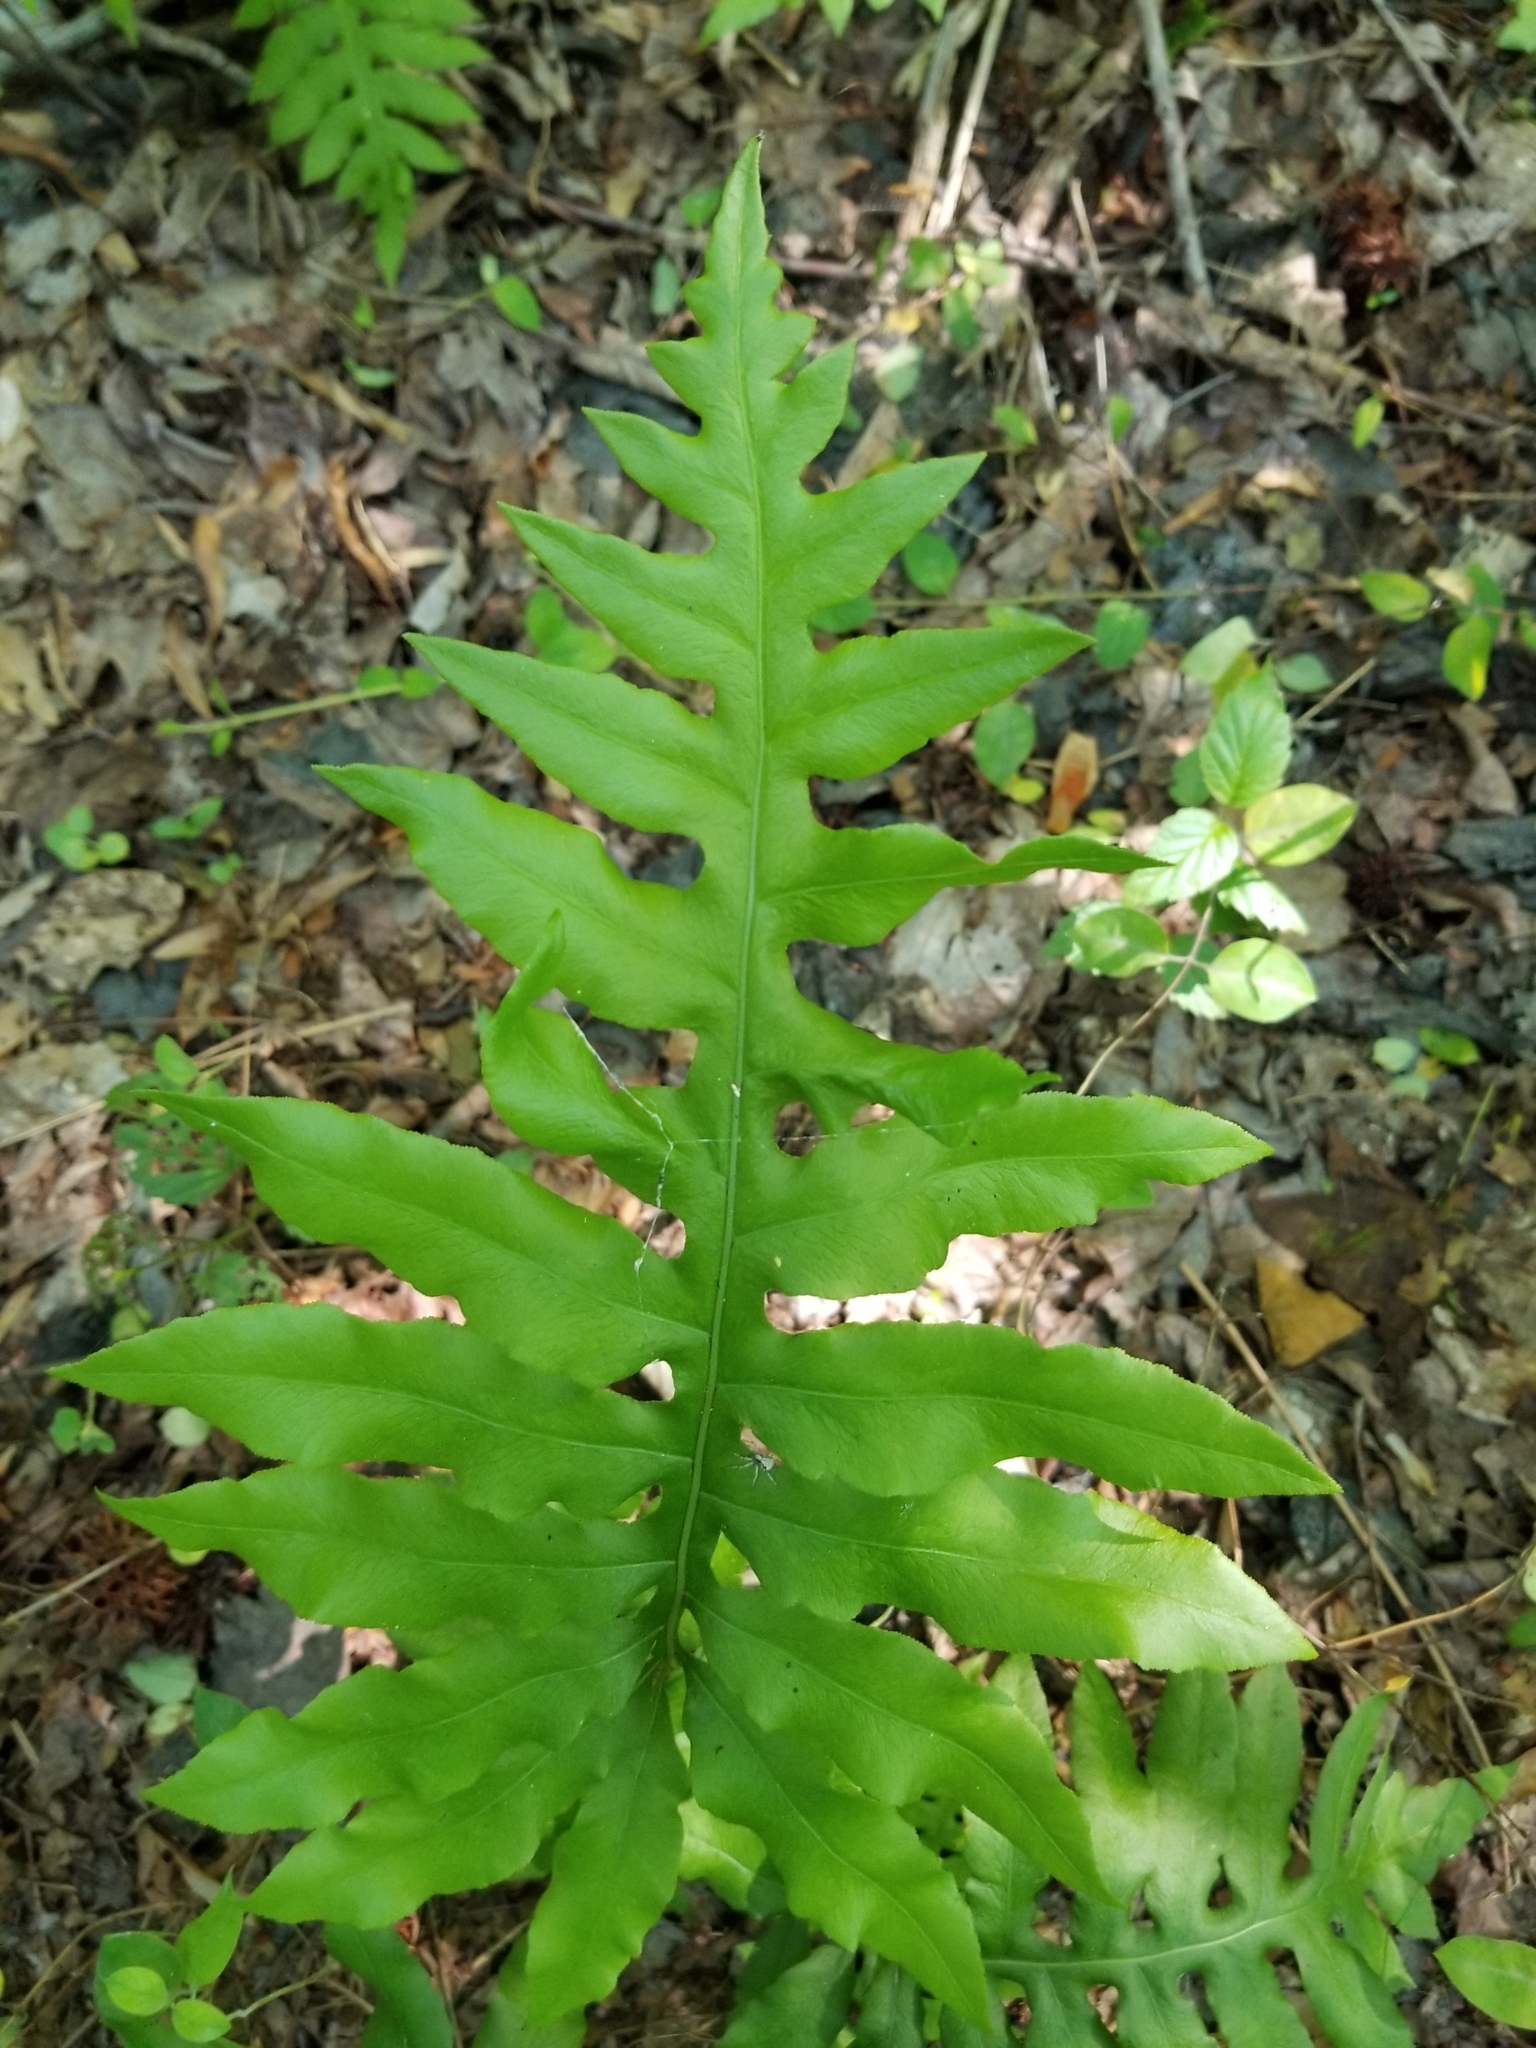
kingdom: Plantae
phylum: Tracheophyta
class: Polypodiopsida
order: Polypodiales
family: Blechnaceae
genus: Lorinseria
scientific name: Lorinseria areolata
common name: Dwarf chain fern
